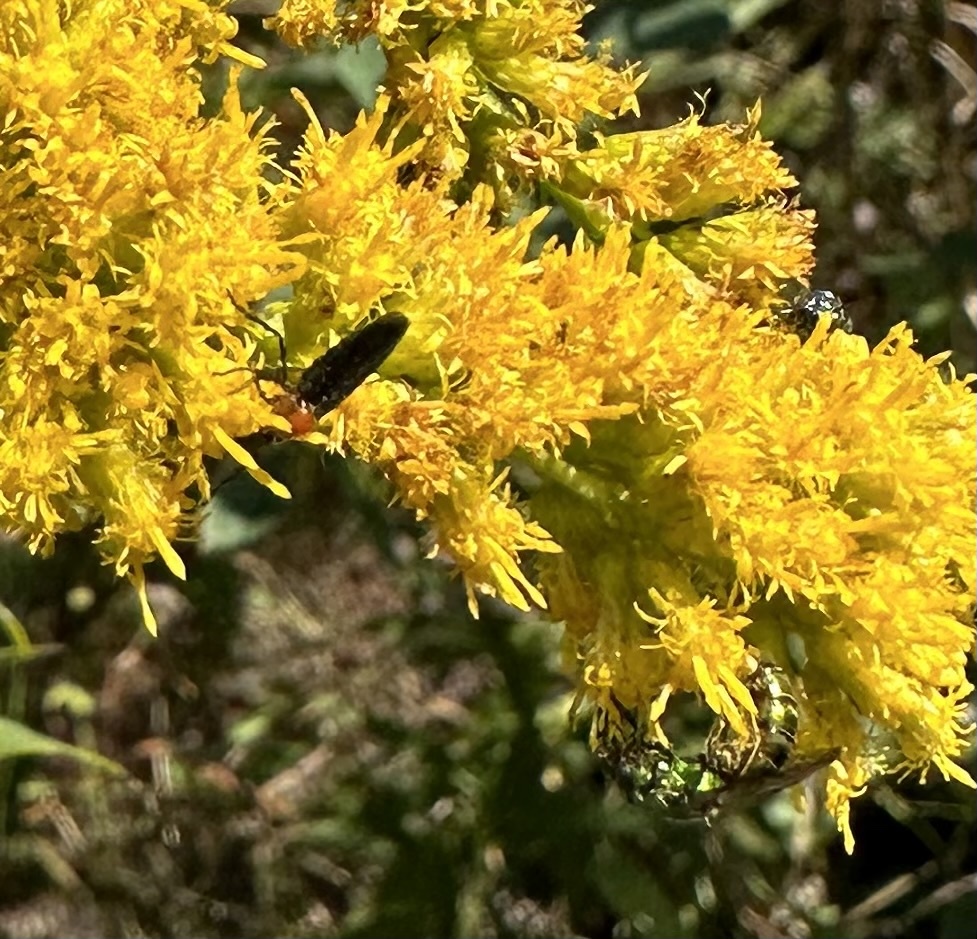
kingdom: Animalia
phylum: Arthropoda
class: Insecta
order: Diptera
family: Bibionidae
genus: Dilophus
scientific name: Dilophus spinipes
